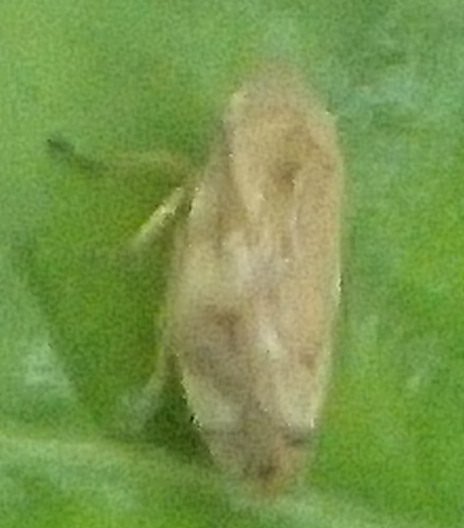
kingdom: Animalia
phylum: Arthropoda
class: Insecta
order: Hemiptera
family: Aphrophoridae
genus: Philaenus
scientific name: Philaenus spumarius
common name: Meadow spittlebug
